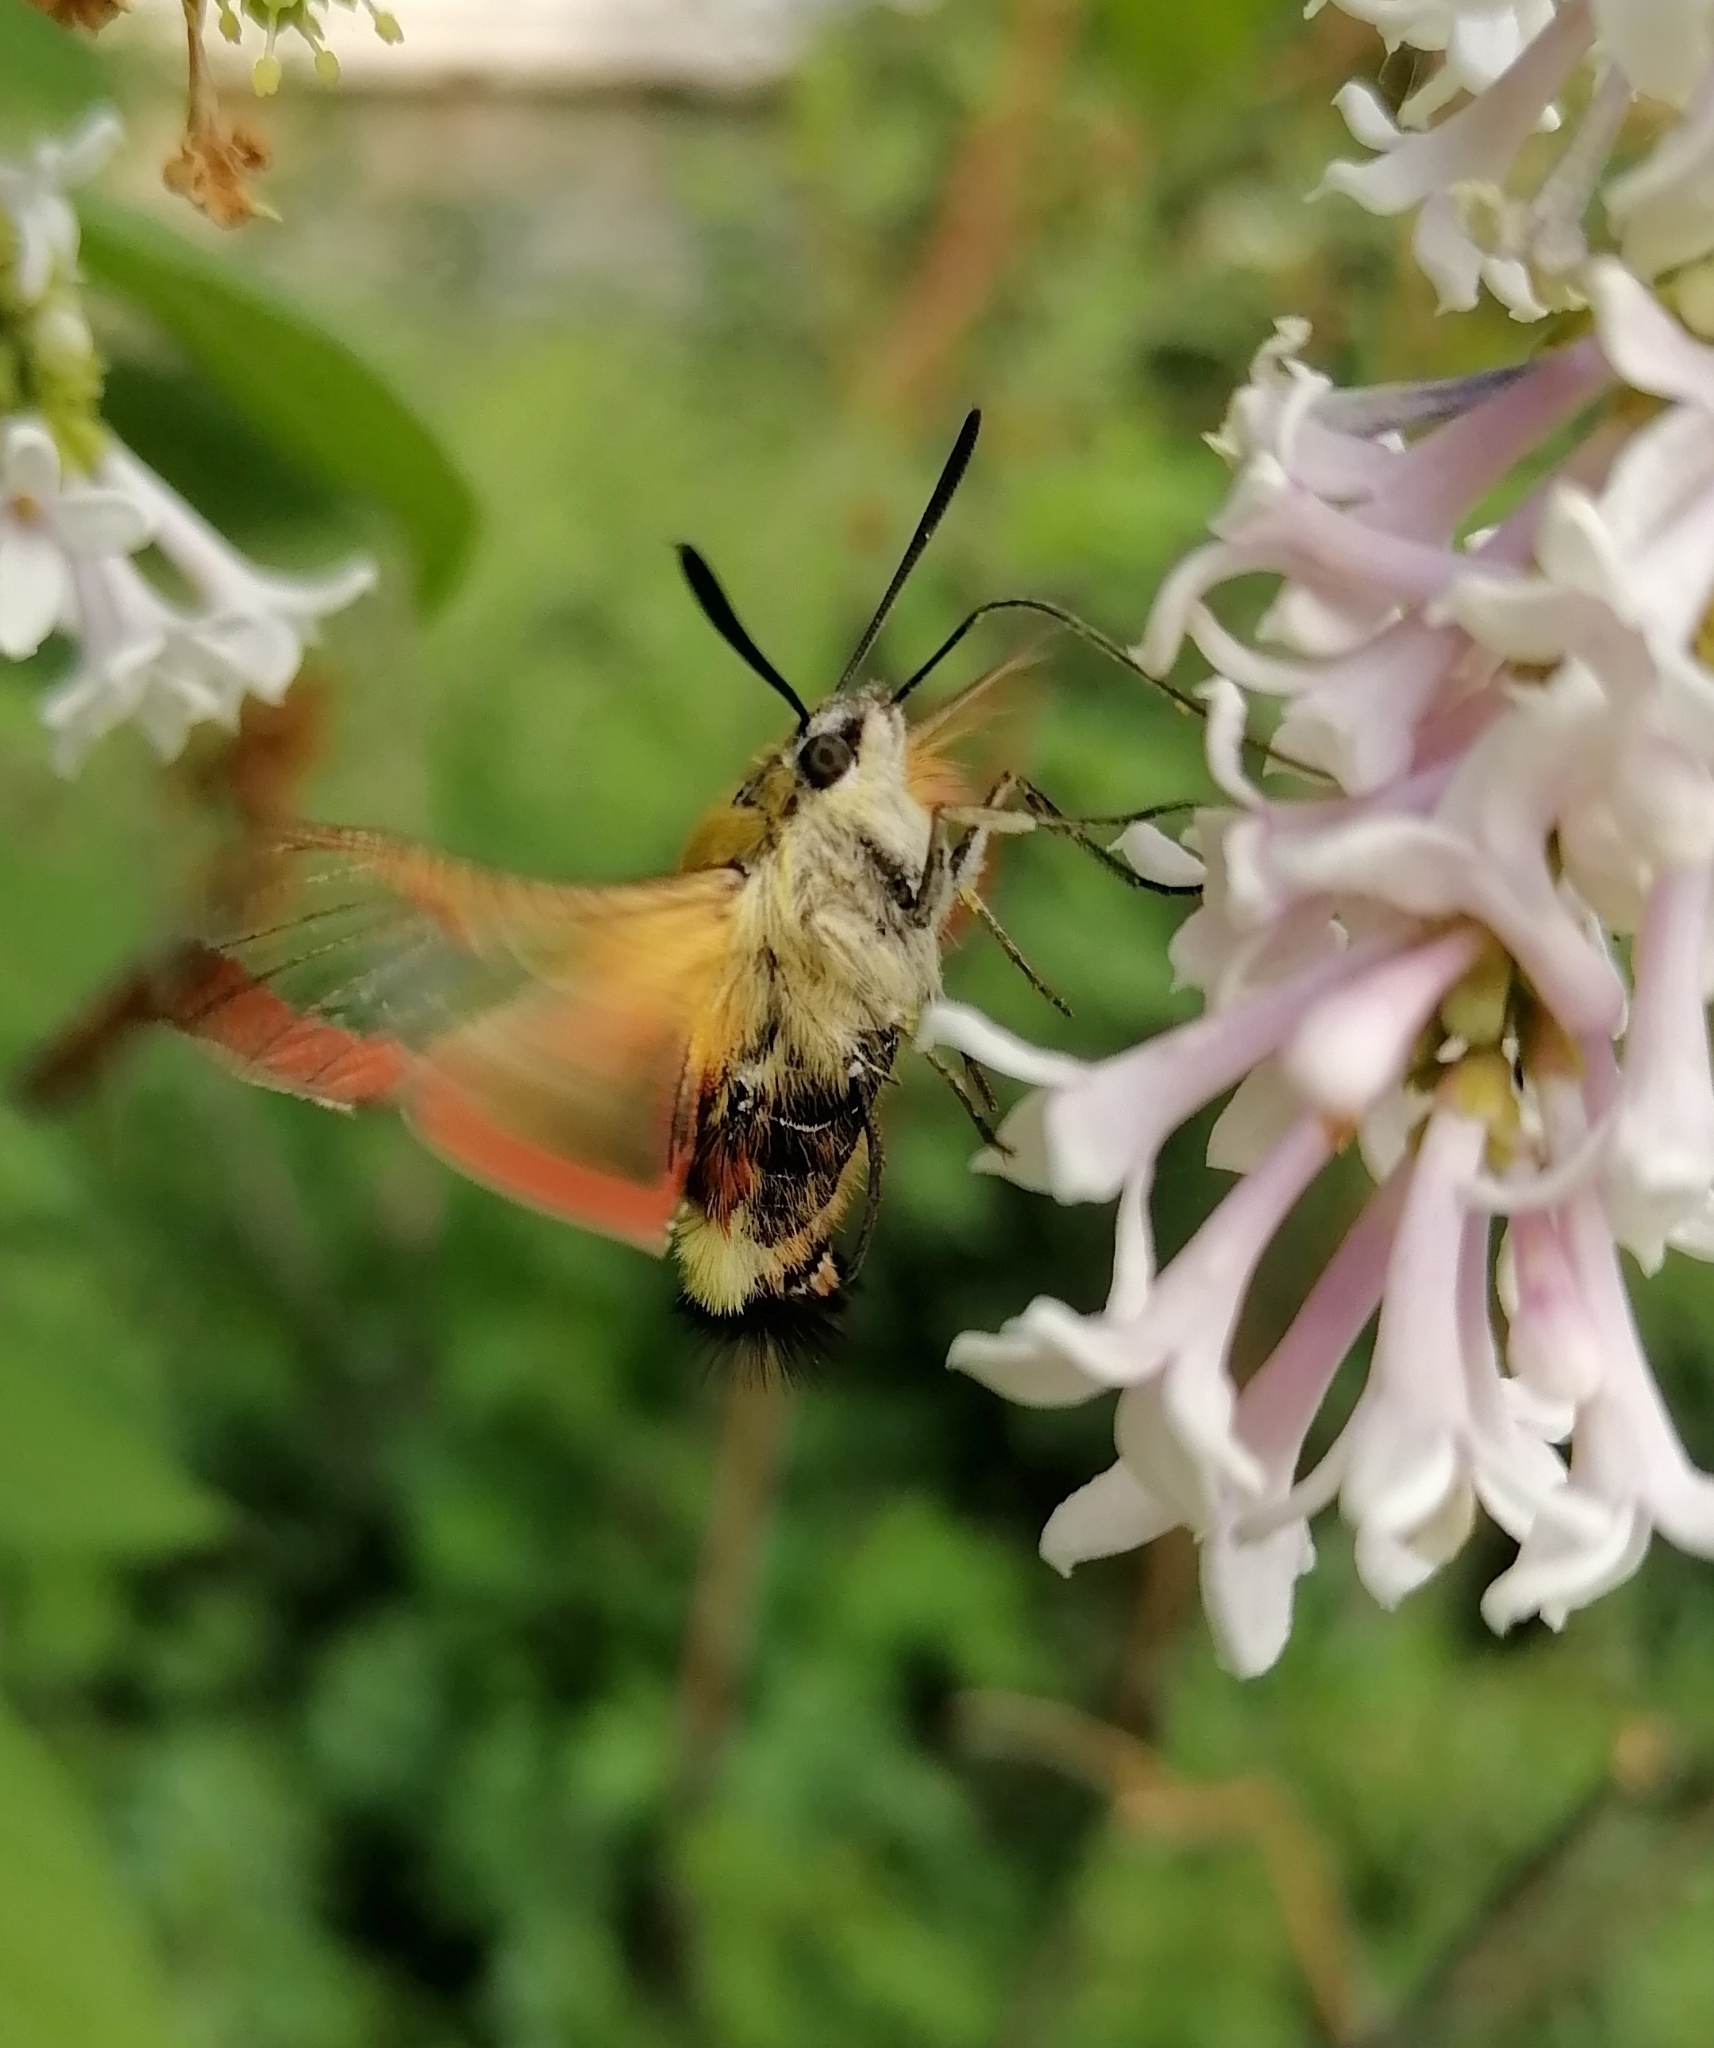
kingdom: Animalia
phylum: Arthropoda
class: Insecta
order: Lepidoptera
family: Sphingidae
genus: Hemaris
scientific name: Hemaris fuciformis
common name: Broad-bordered bee hawk-moth
